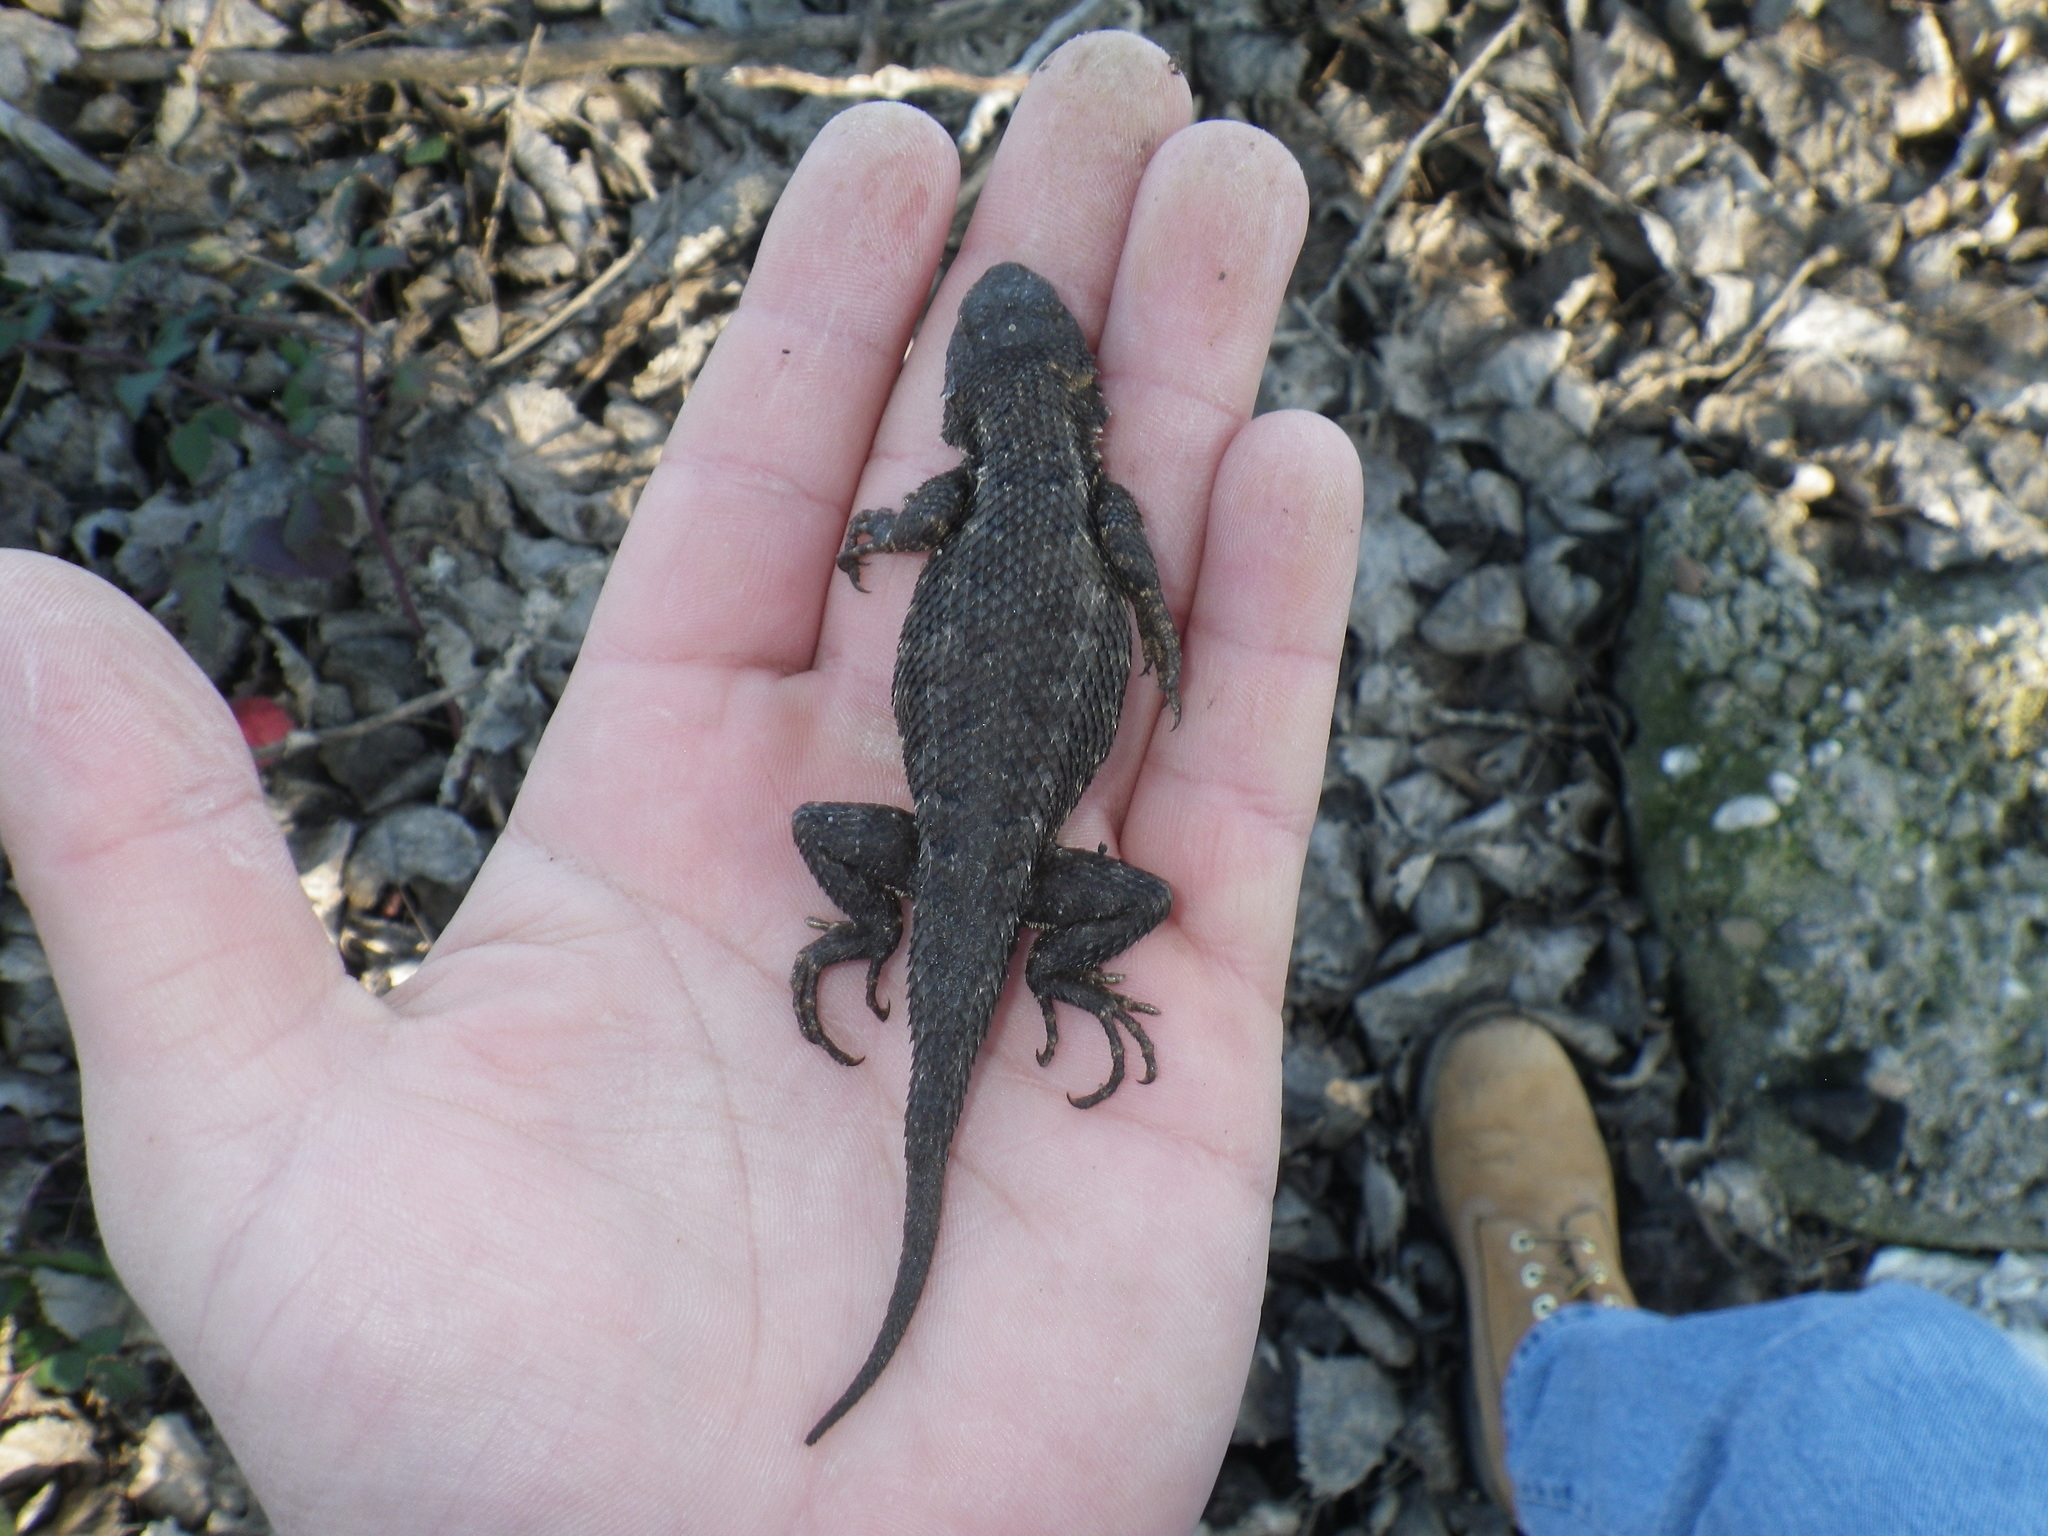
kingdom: Animalia
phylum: Chordata
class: Squamata
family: Phrynosomatidae
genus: Sceloporus
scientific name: Sceloporus occidentalis
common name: Western fence lizard
